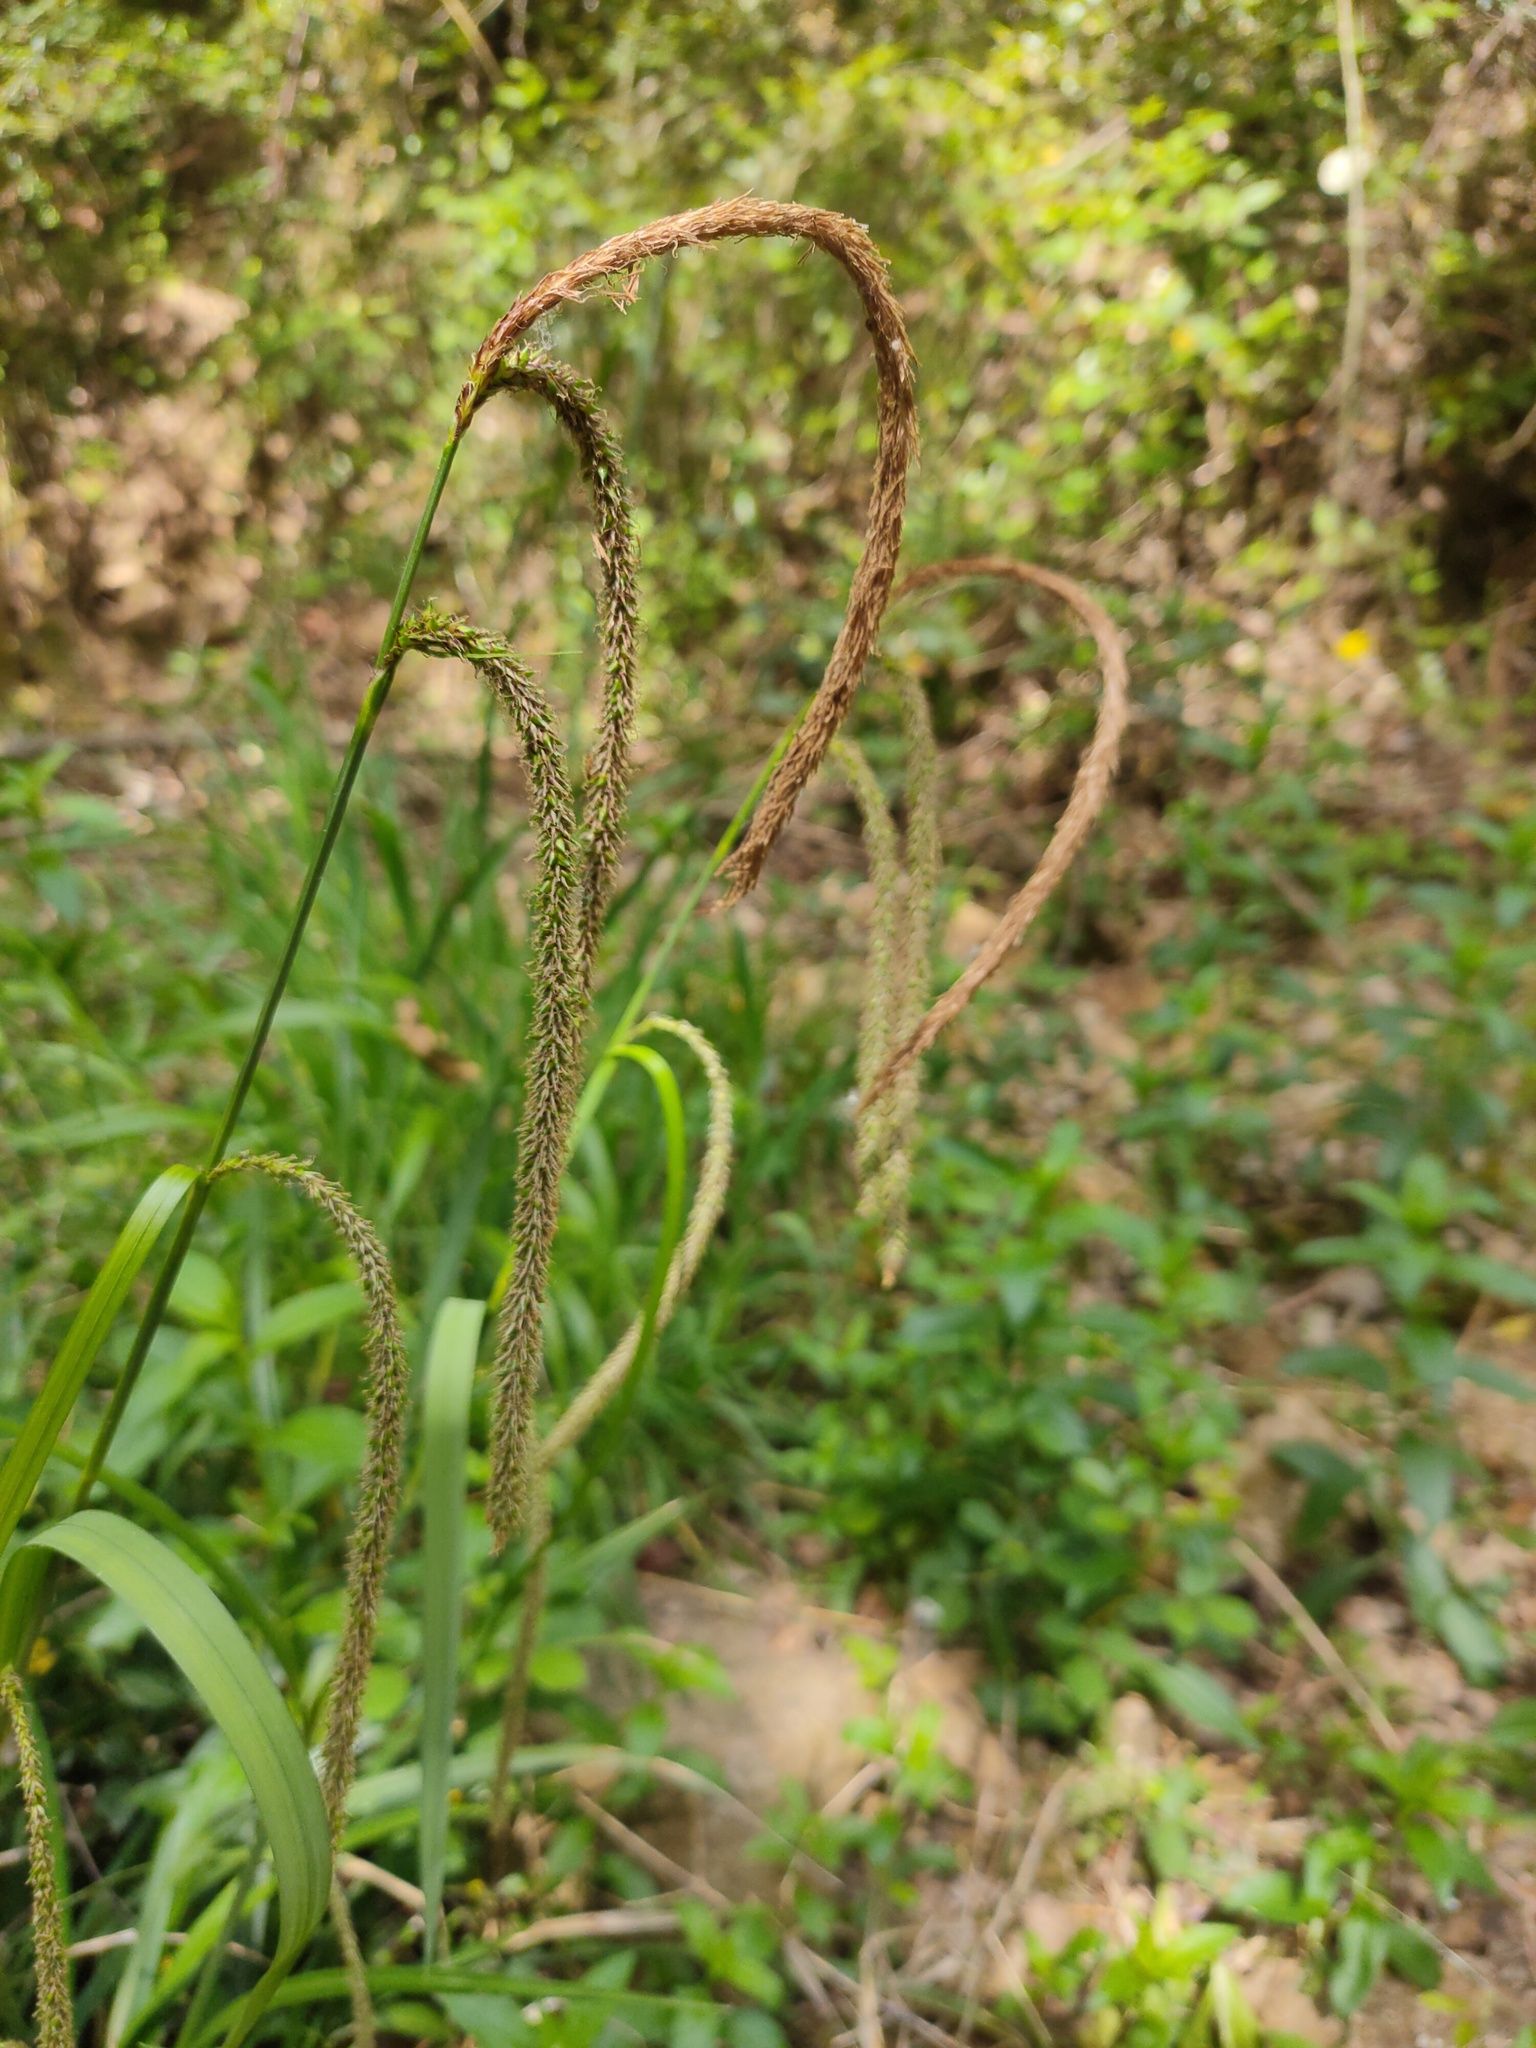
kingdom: Plantae
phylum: Tracheophyta
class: Liliopsida
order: Poales
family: Cyperaceae
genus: Carex
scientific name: Carex pendula
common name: Pendulous sedge
